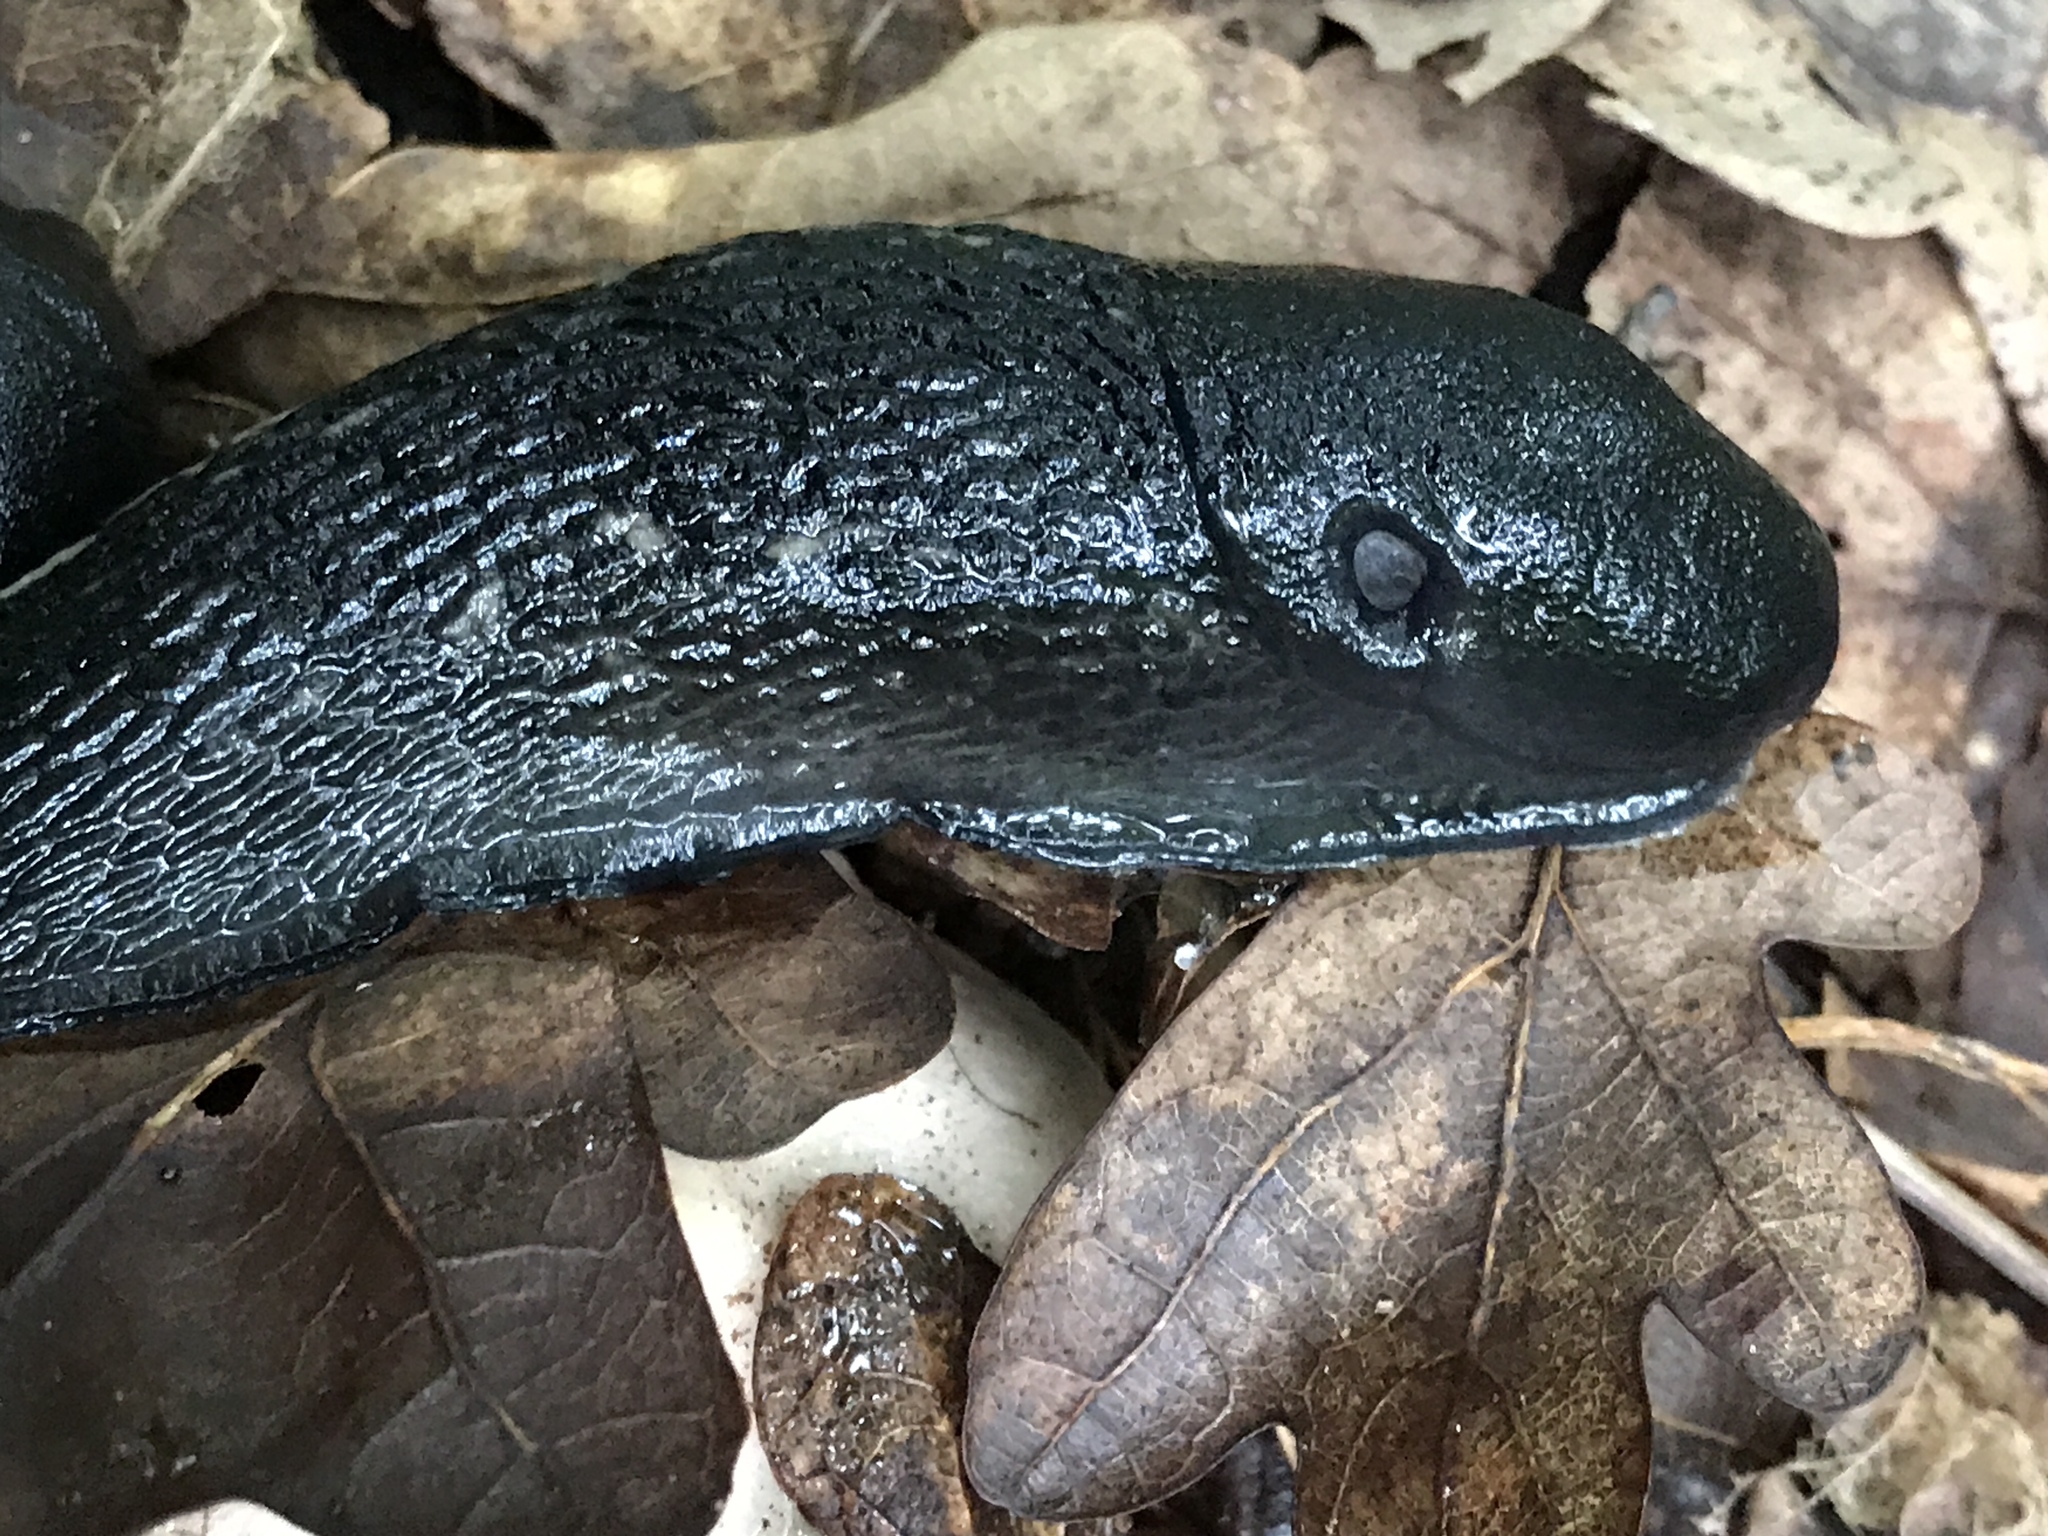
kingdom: Animalia
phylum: Mollusca
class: Gastropoda
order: Stylommatophora
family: Limacidae
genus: Limax
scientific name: Limax cinereoniger
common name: Ash-black slug
